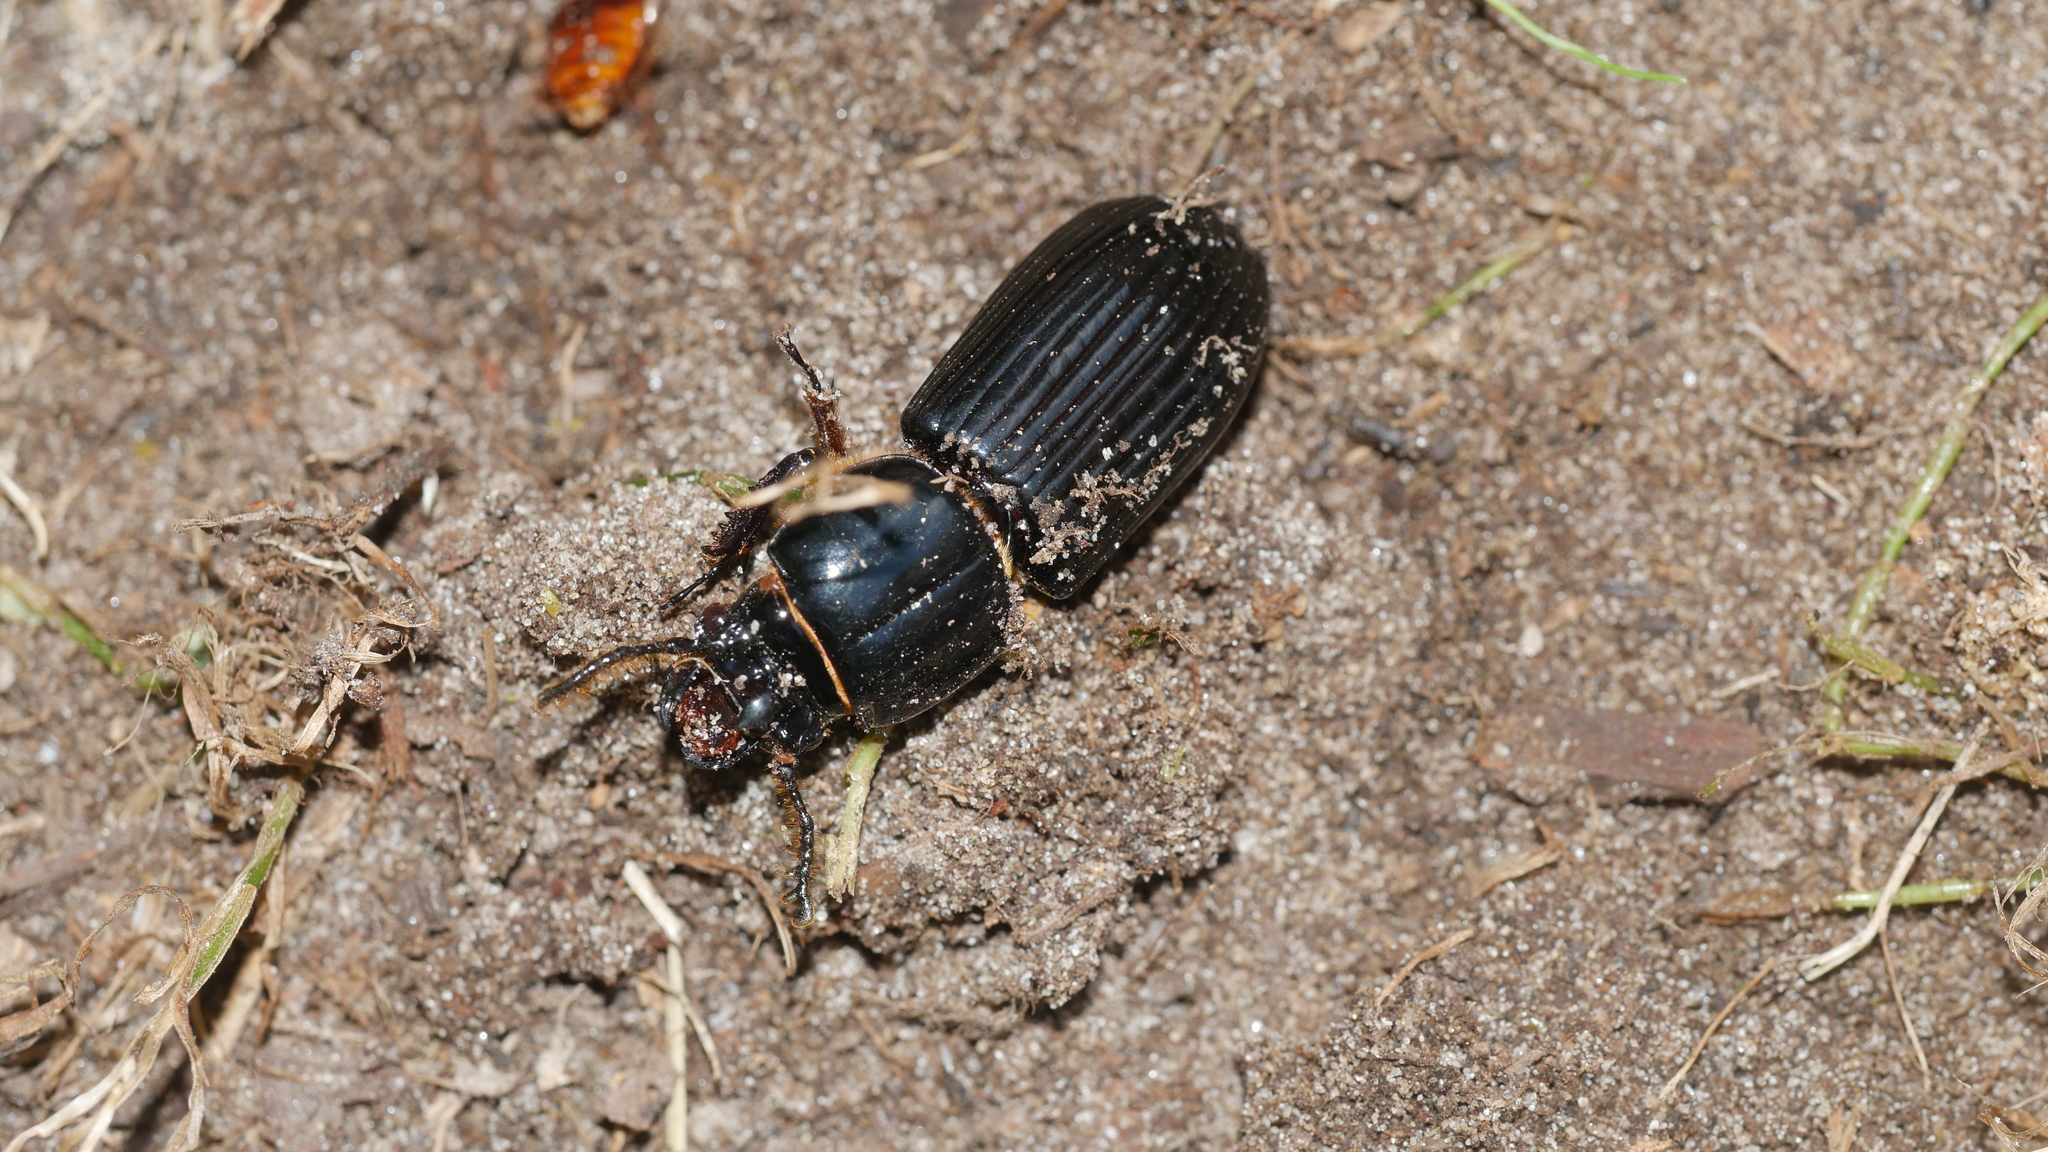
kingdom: Animalia
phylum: Arthropoda
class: Insecta
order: Coleoptera
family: Passalidae
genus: Odontotaenius
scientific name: Odontotaenius disjunctus
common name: Patent leather beetle
